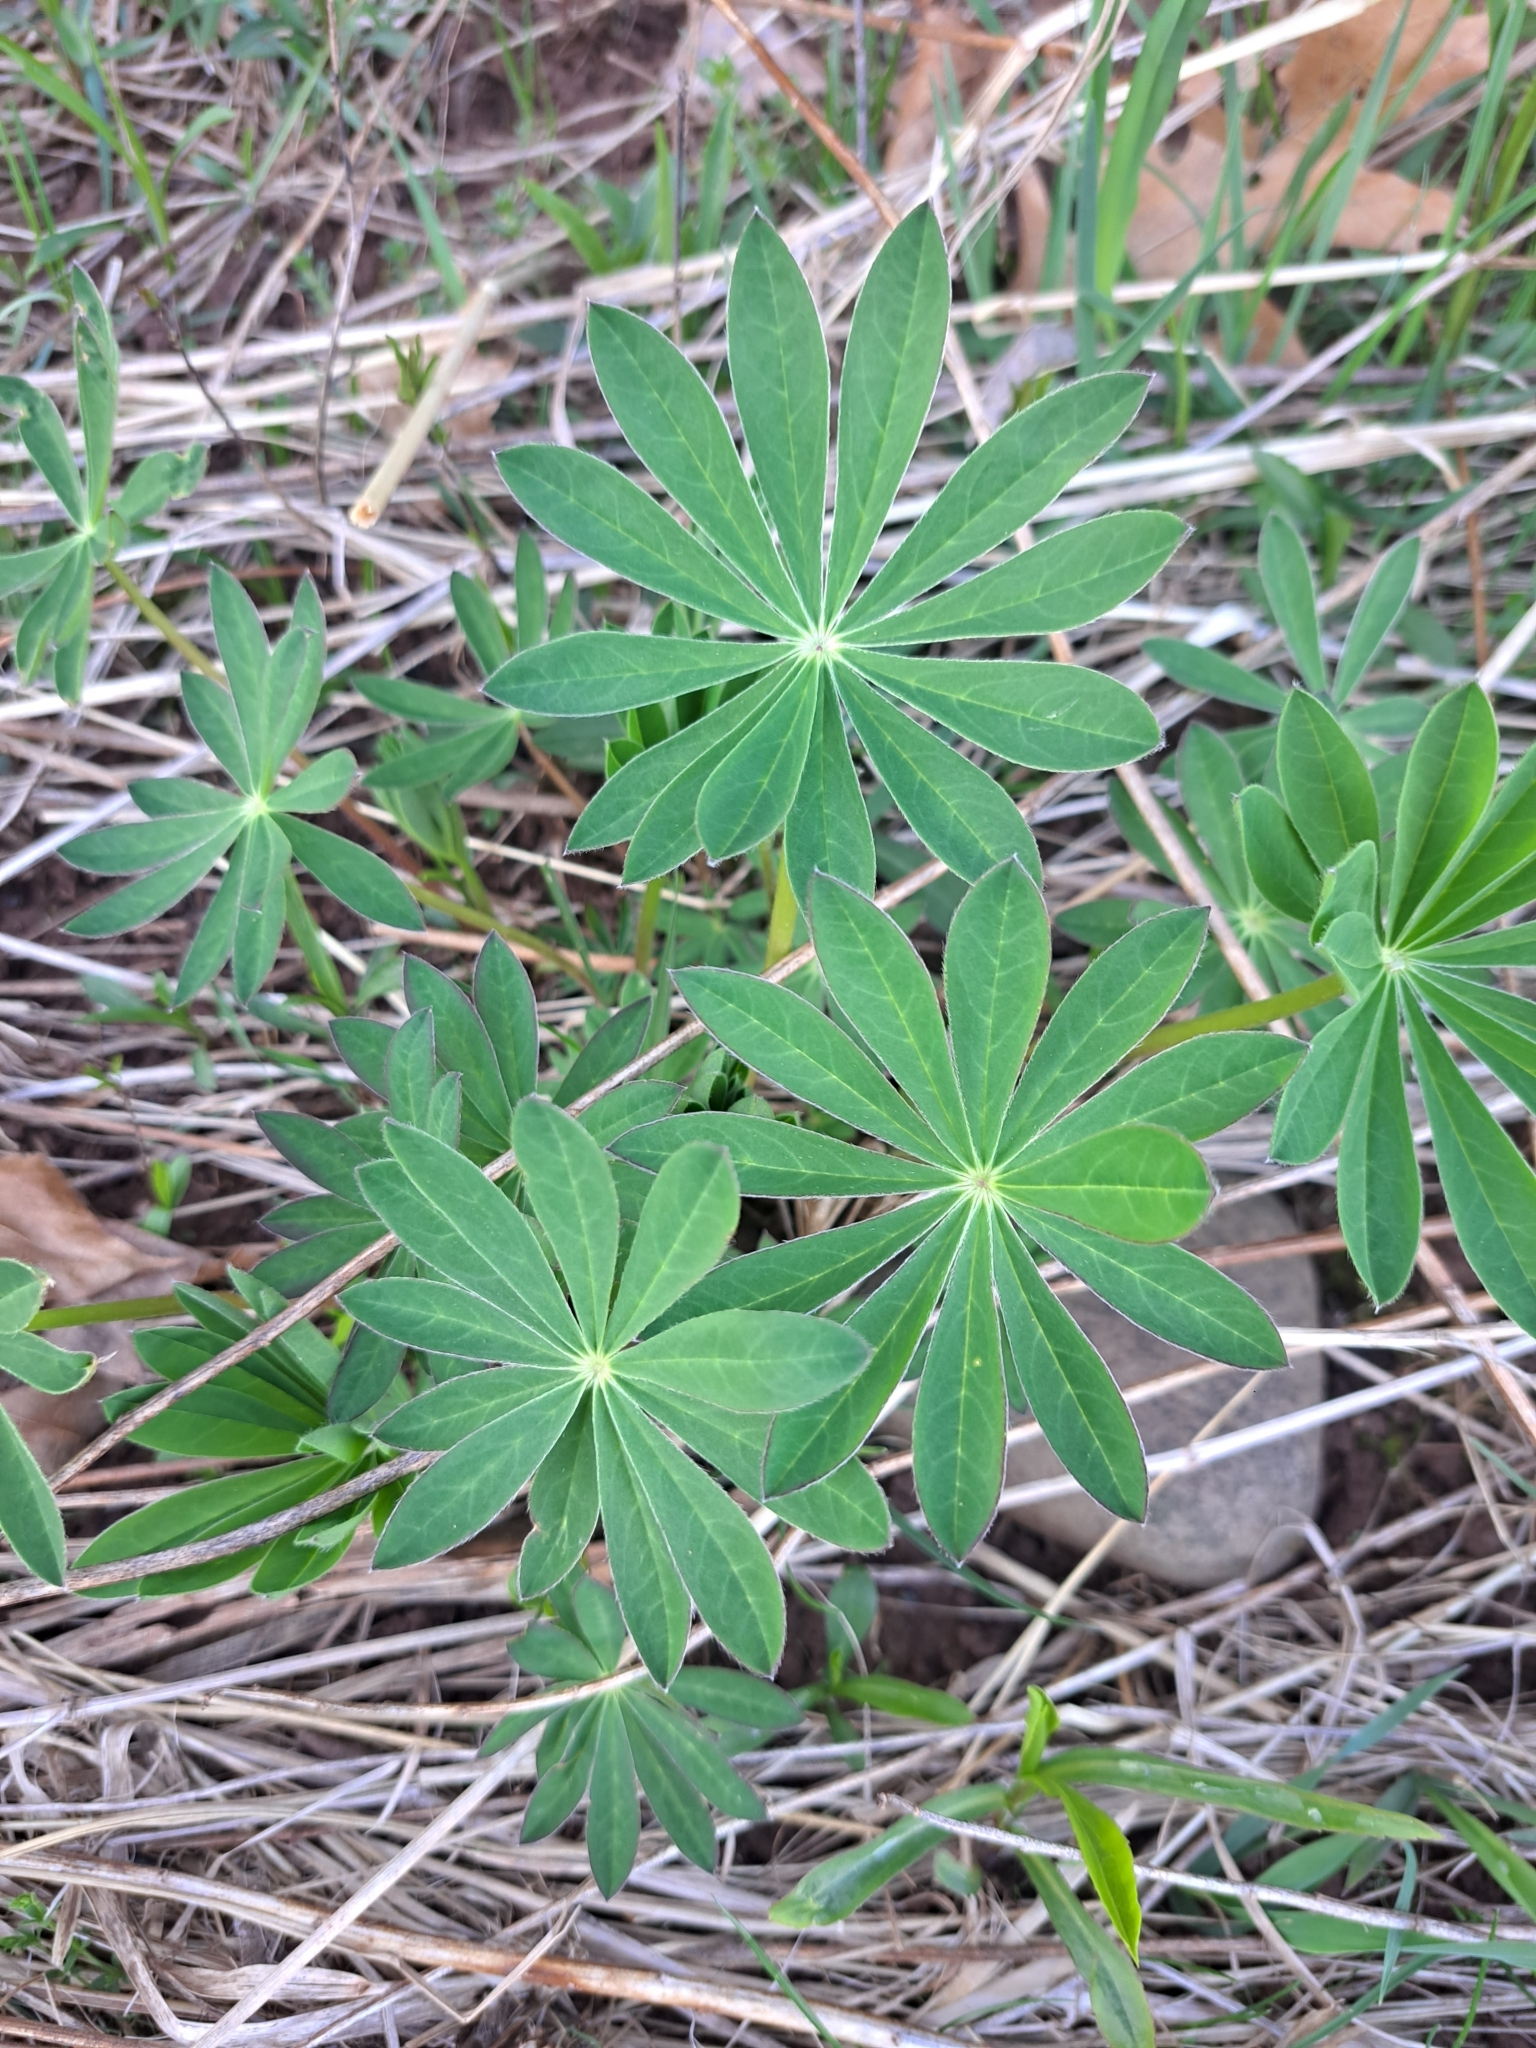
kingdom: Plantae
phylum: Tracheophyta
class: Magnoliopsida
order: Fabales
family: Fabaceae
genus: Lupinus
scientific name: Lupinus polyphyllus
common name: Garden lupin
